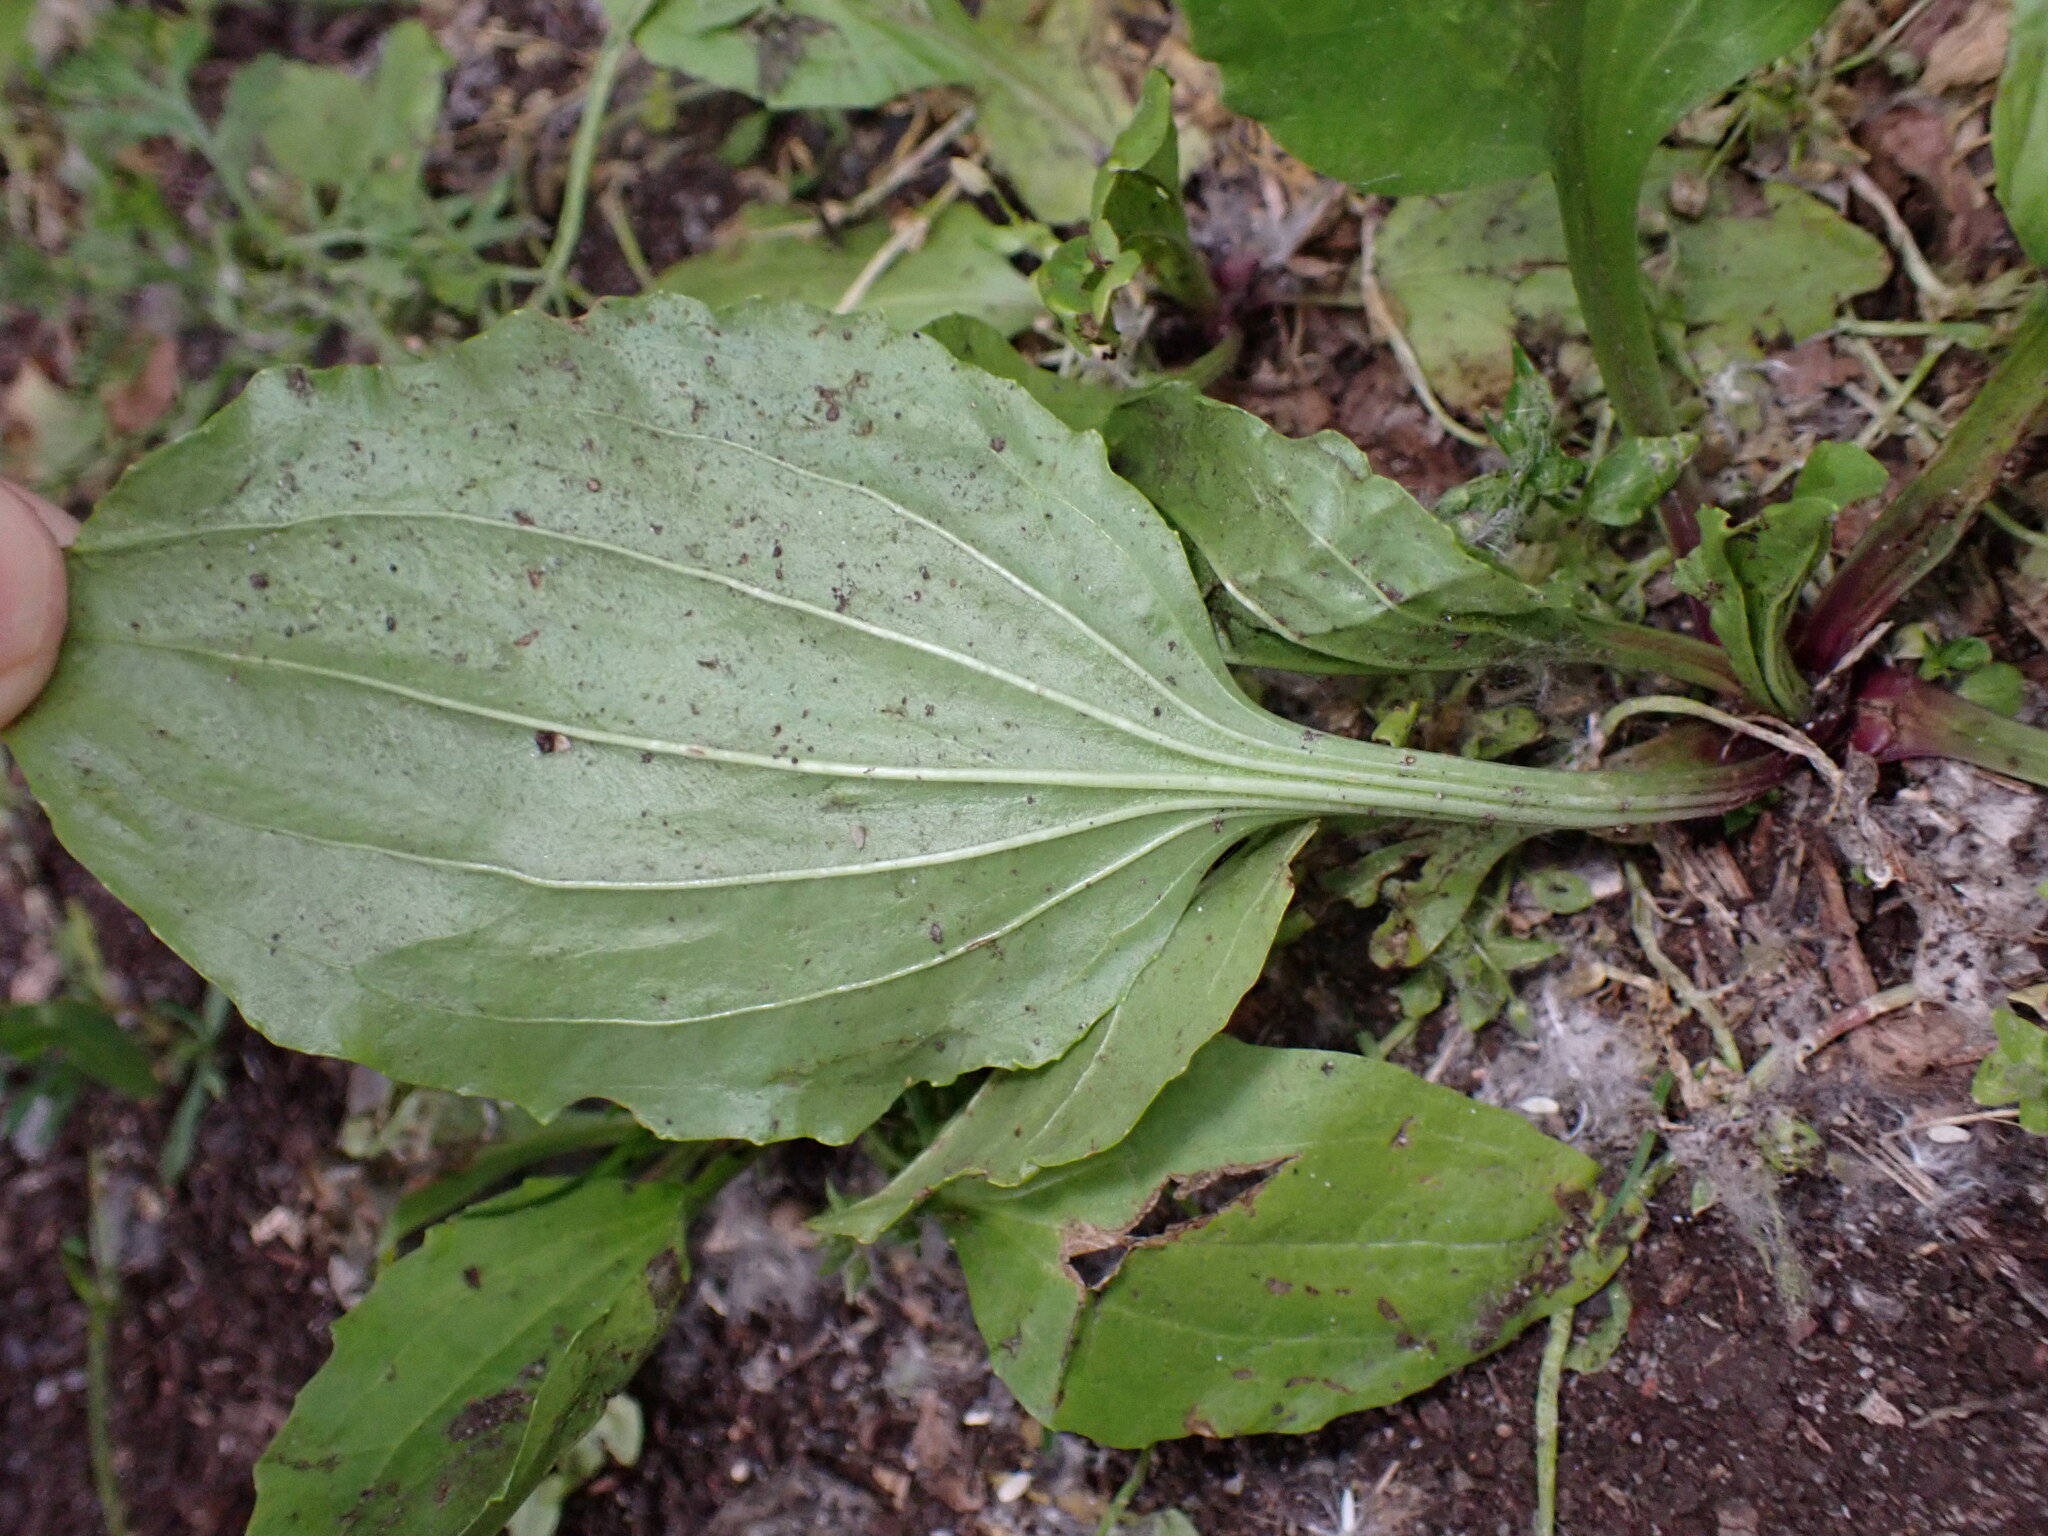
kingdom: Plantae
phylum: Tracheophyta
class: Magnoliopsida
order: Lamiales
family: Plantaginaceae
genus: Plantago
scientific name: Plantago rugelii
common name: American plantain
